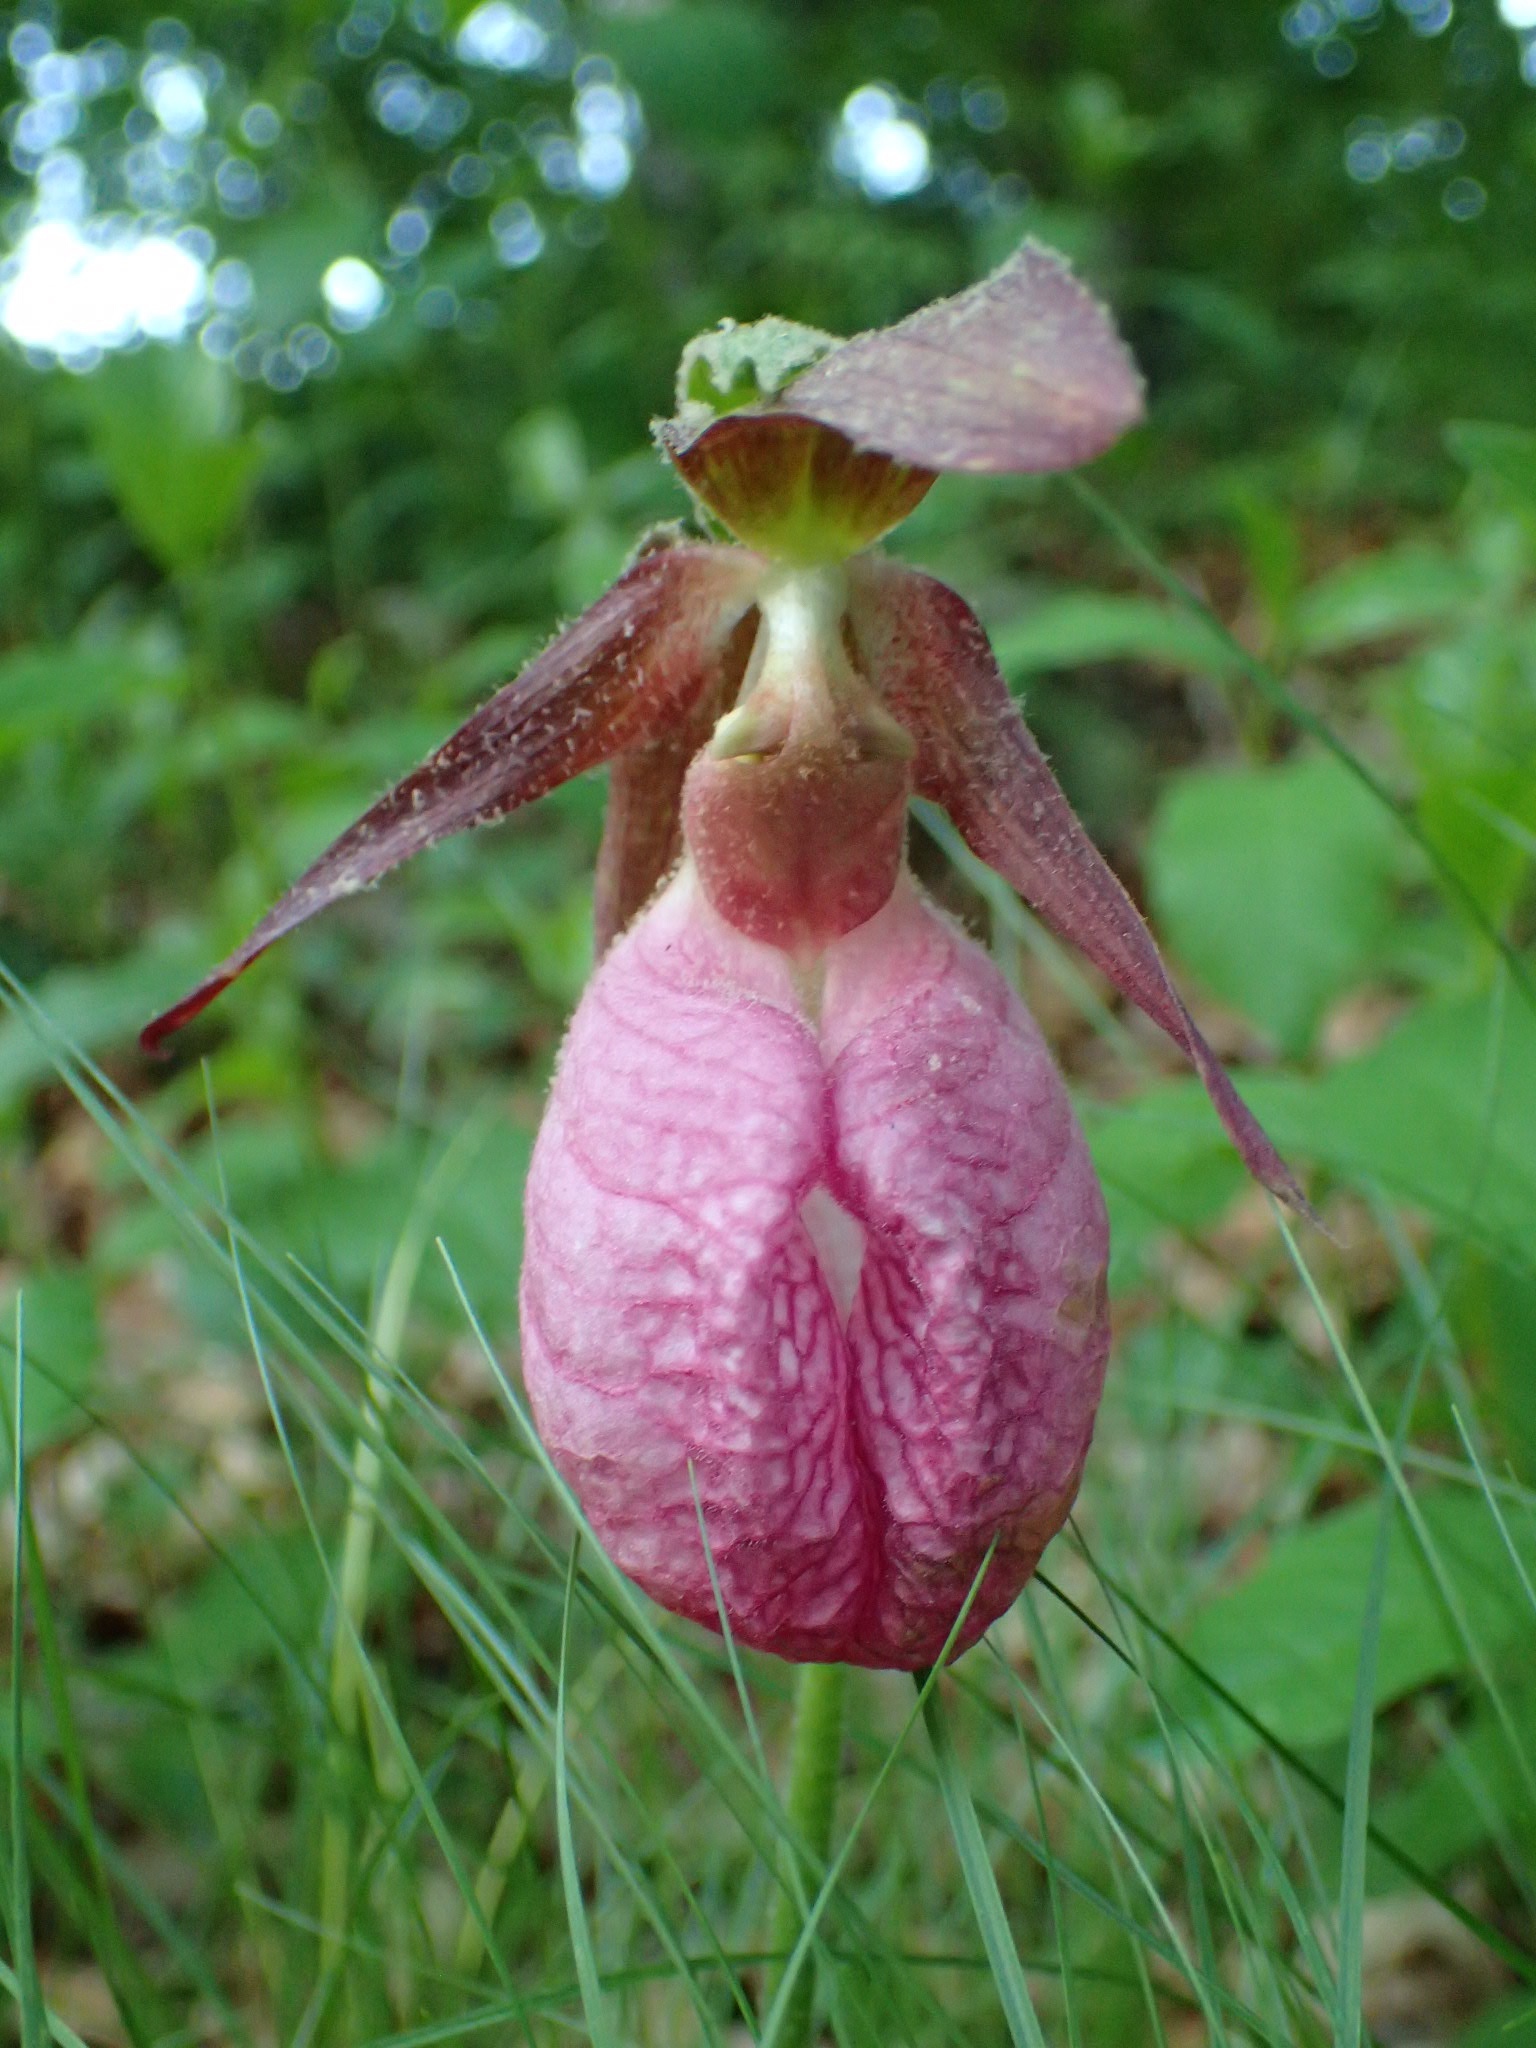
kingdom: Plantae
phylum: Tracheophyta
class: Liliopsida
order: Asparagales
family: Orchidaceae
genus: Cypripedium
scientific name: Cypripedium acaule
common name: Pink lady's-slipper
